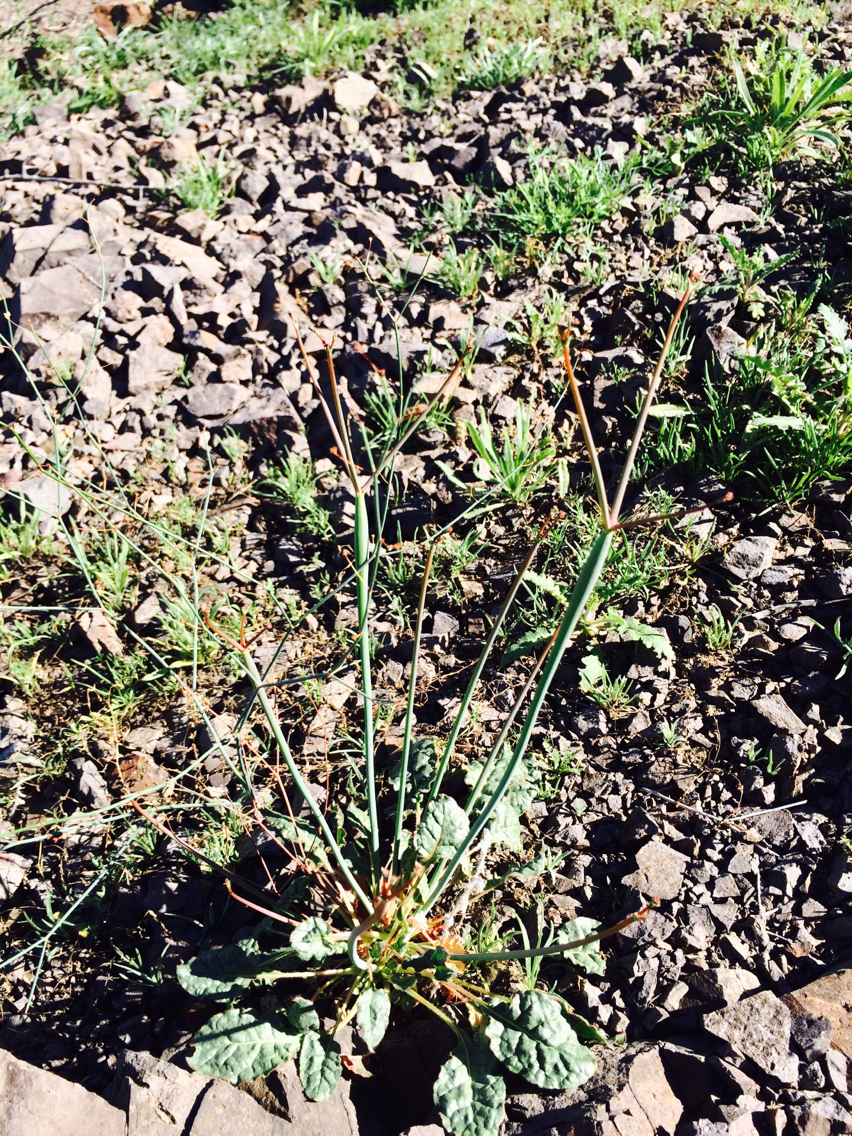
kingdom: Plantae
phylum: Tracheophyta
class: Magnoliopsida
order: Caryophyllales
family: Polygonaceae
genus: Eriogonum
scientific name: Eriogonum inflatum
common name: Desert trumpet
